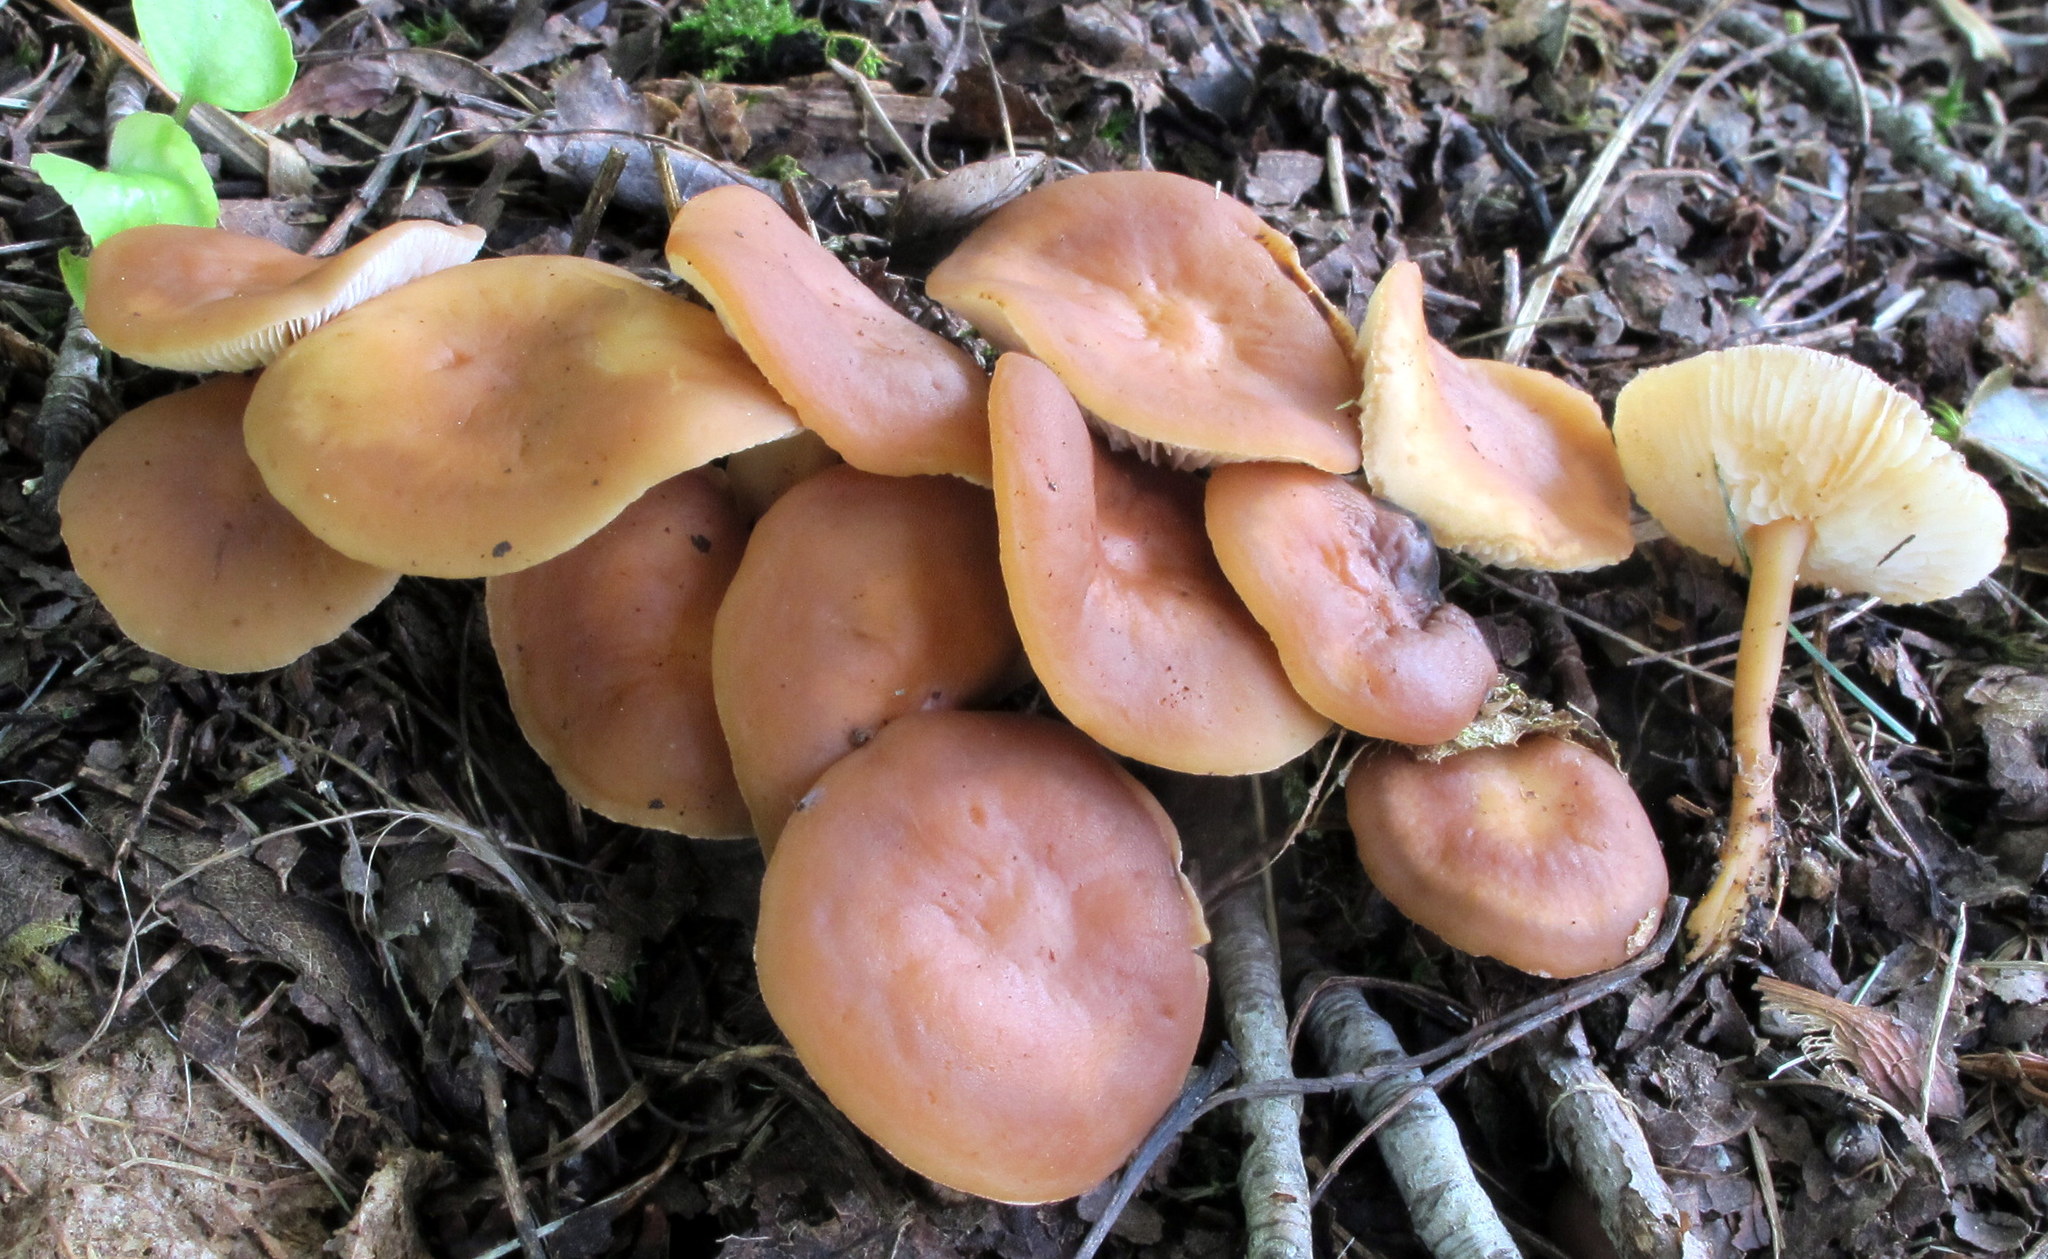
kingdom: Fungi
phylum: Basidiomycota
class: Agaricomycetes
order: Agaricales
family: Omphalotaceae
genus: Gymnopus
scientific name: Gymnopus dryophilus
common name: Penny top
